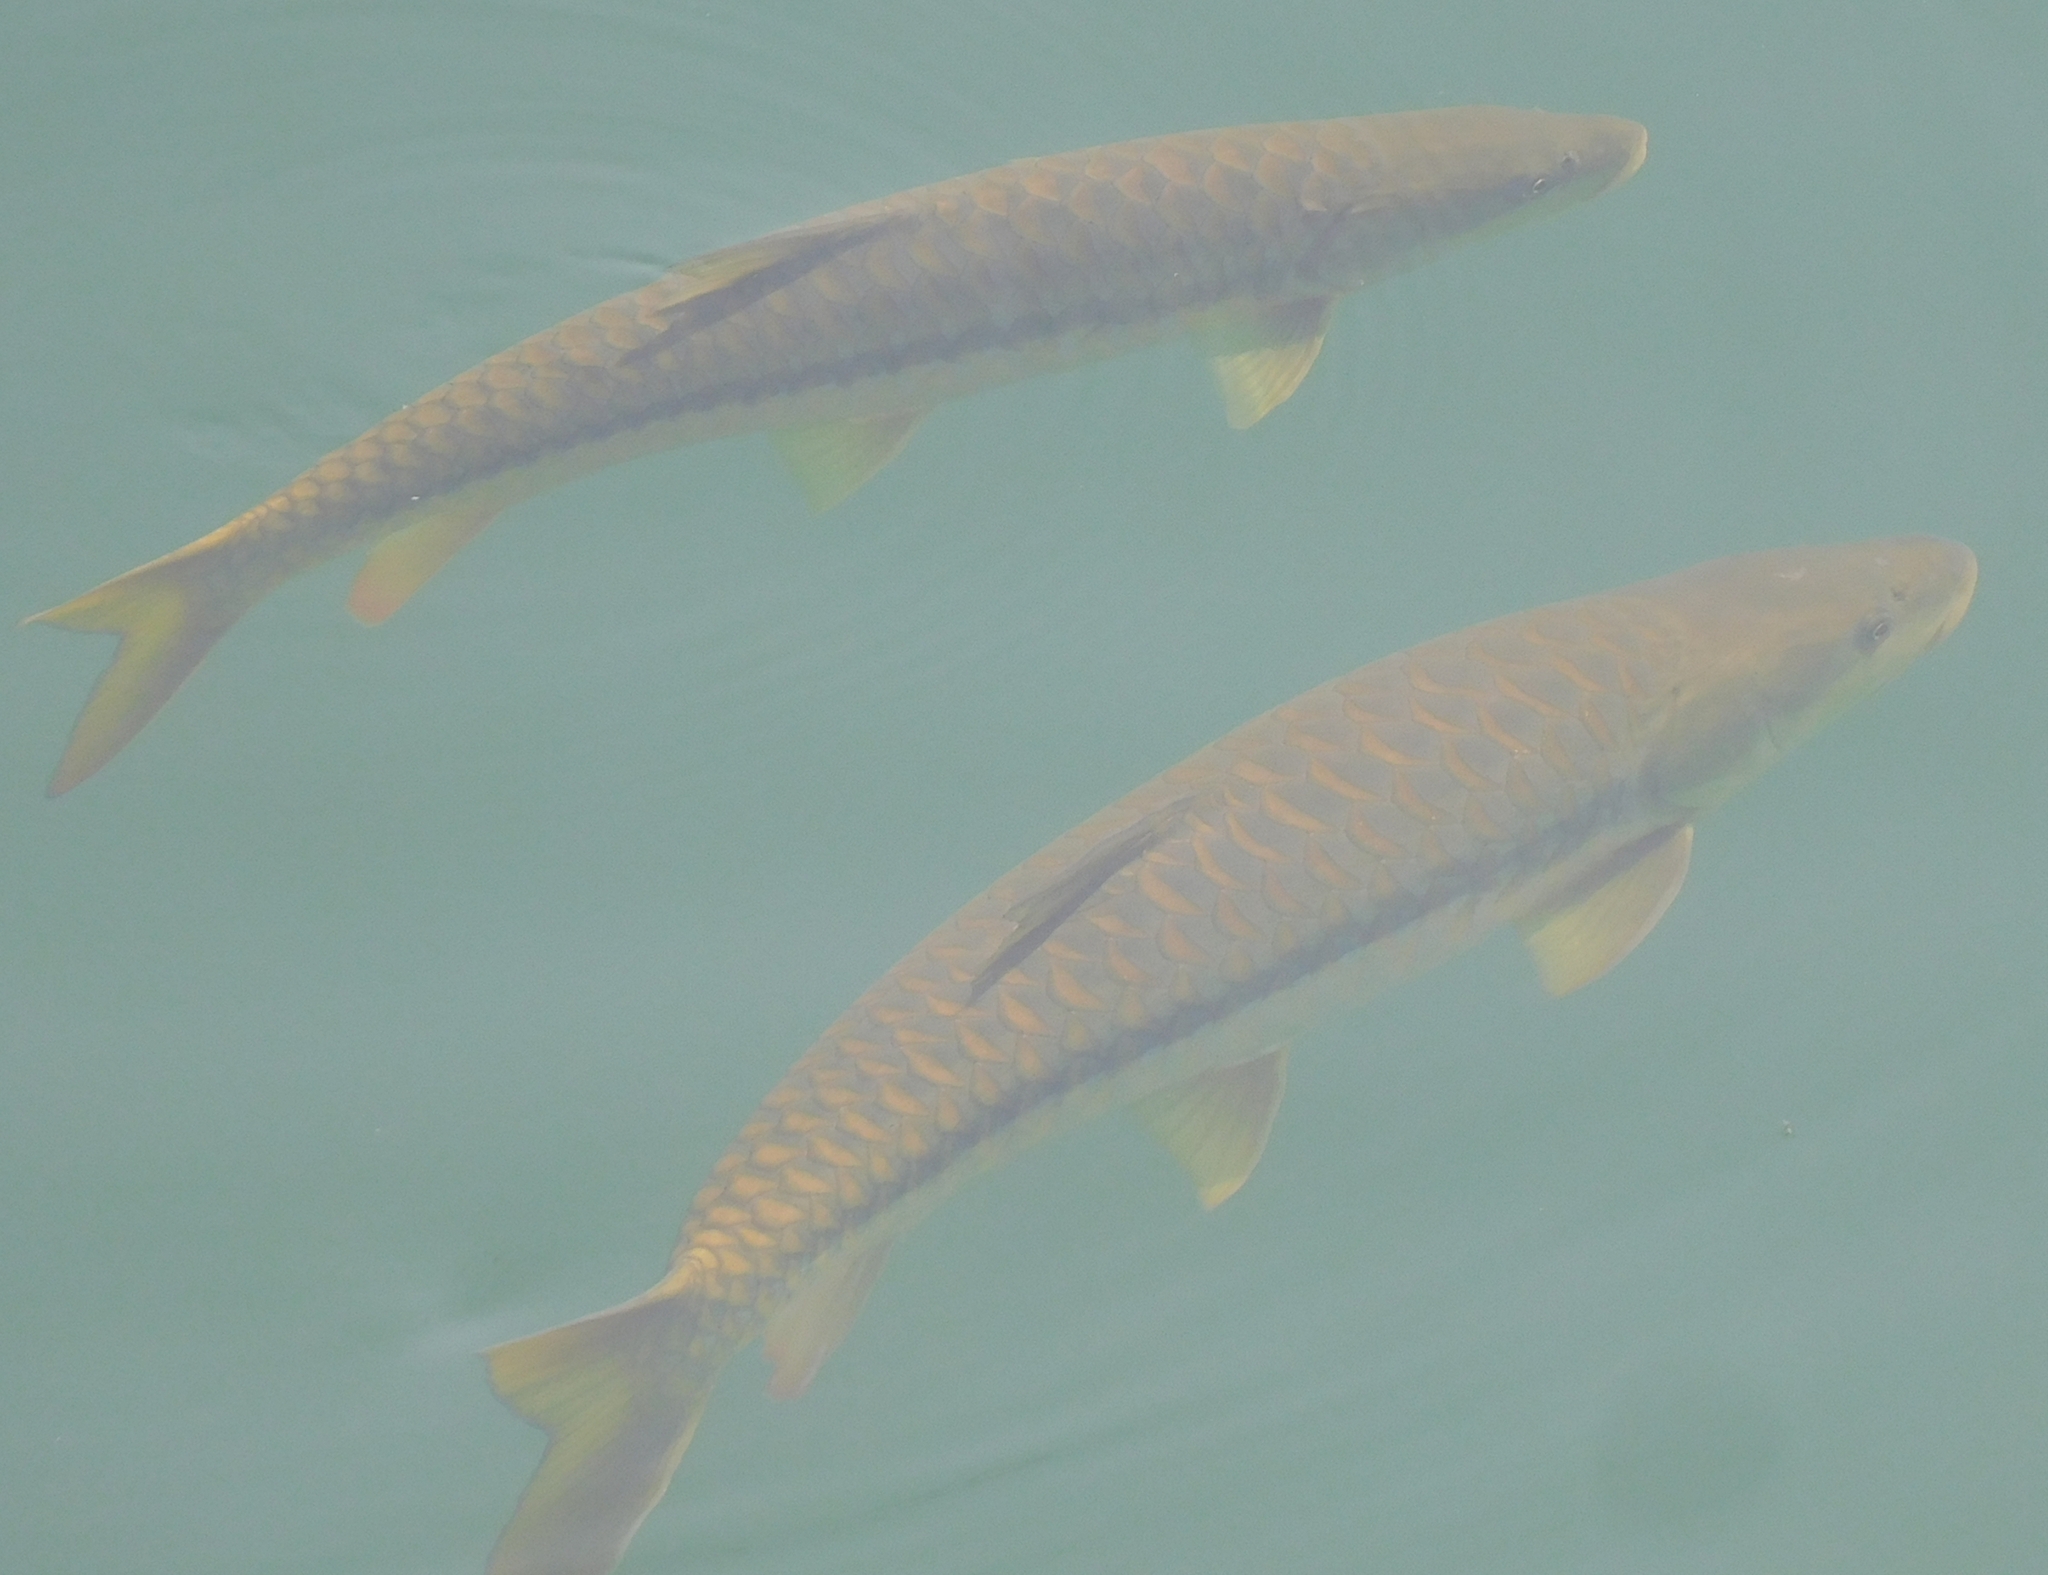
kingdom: Animalia
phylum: Chordata
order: Cypriniformes
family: Cyprinidae
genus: Tor
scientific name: Tor putitora
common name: Putitor mahseer
